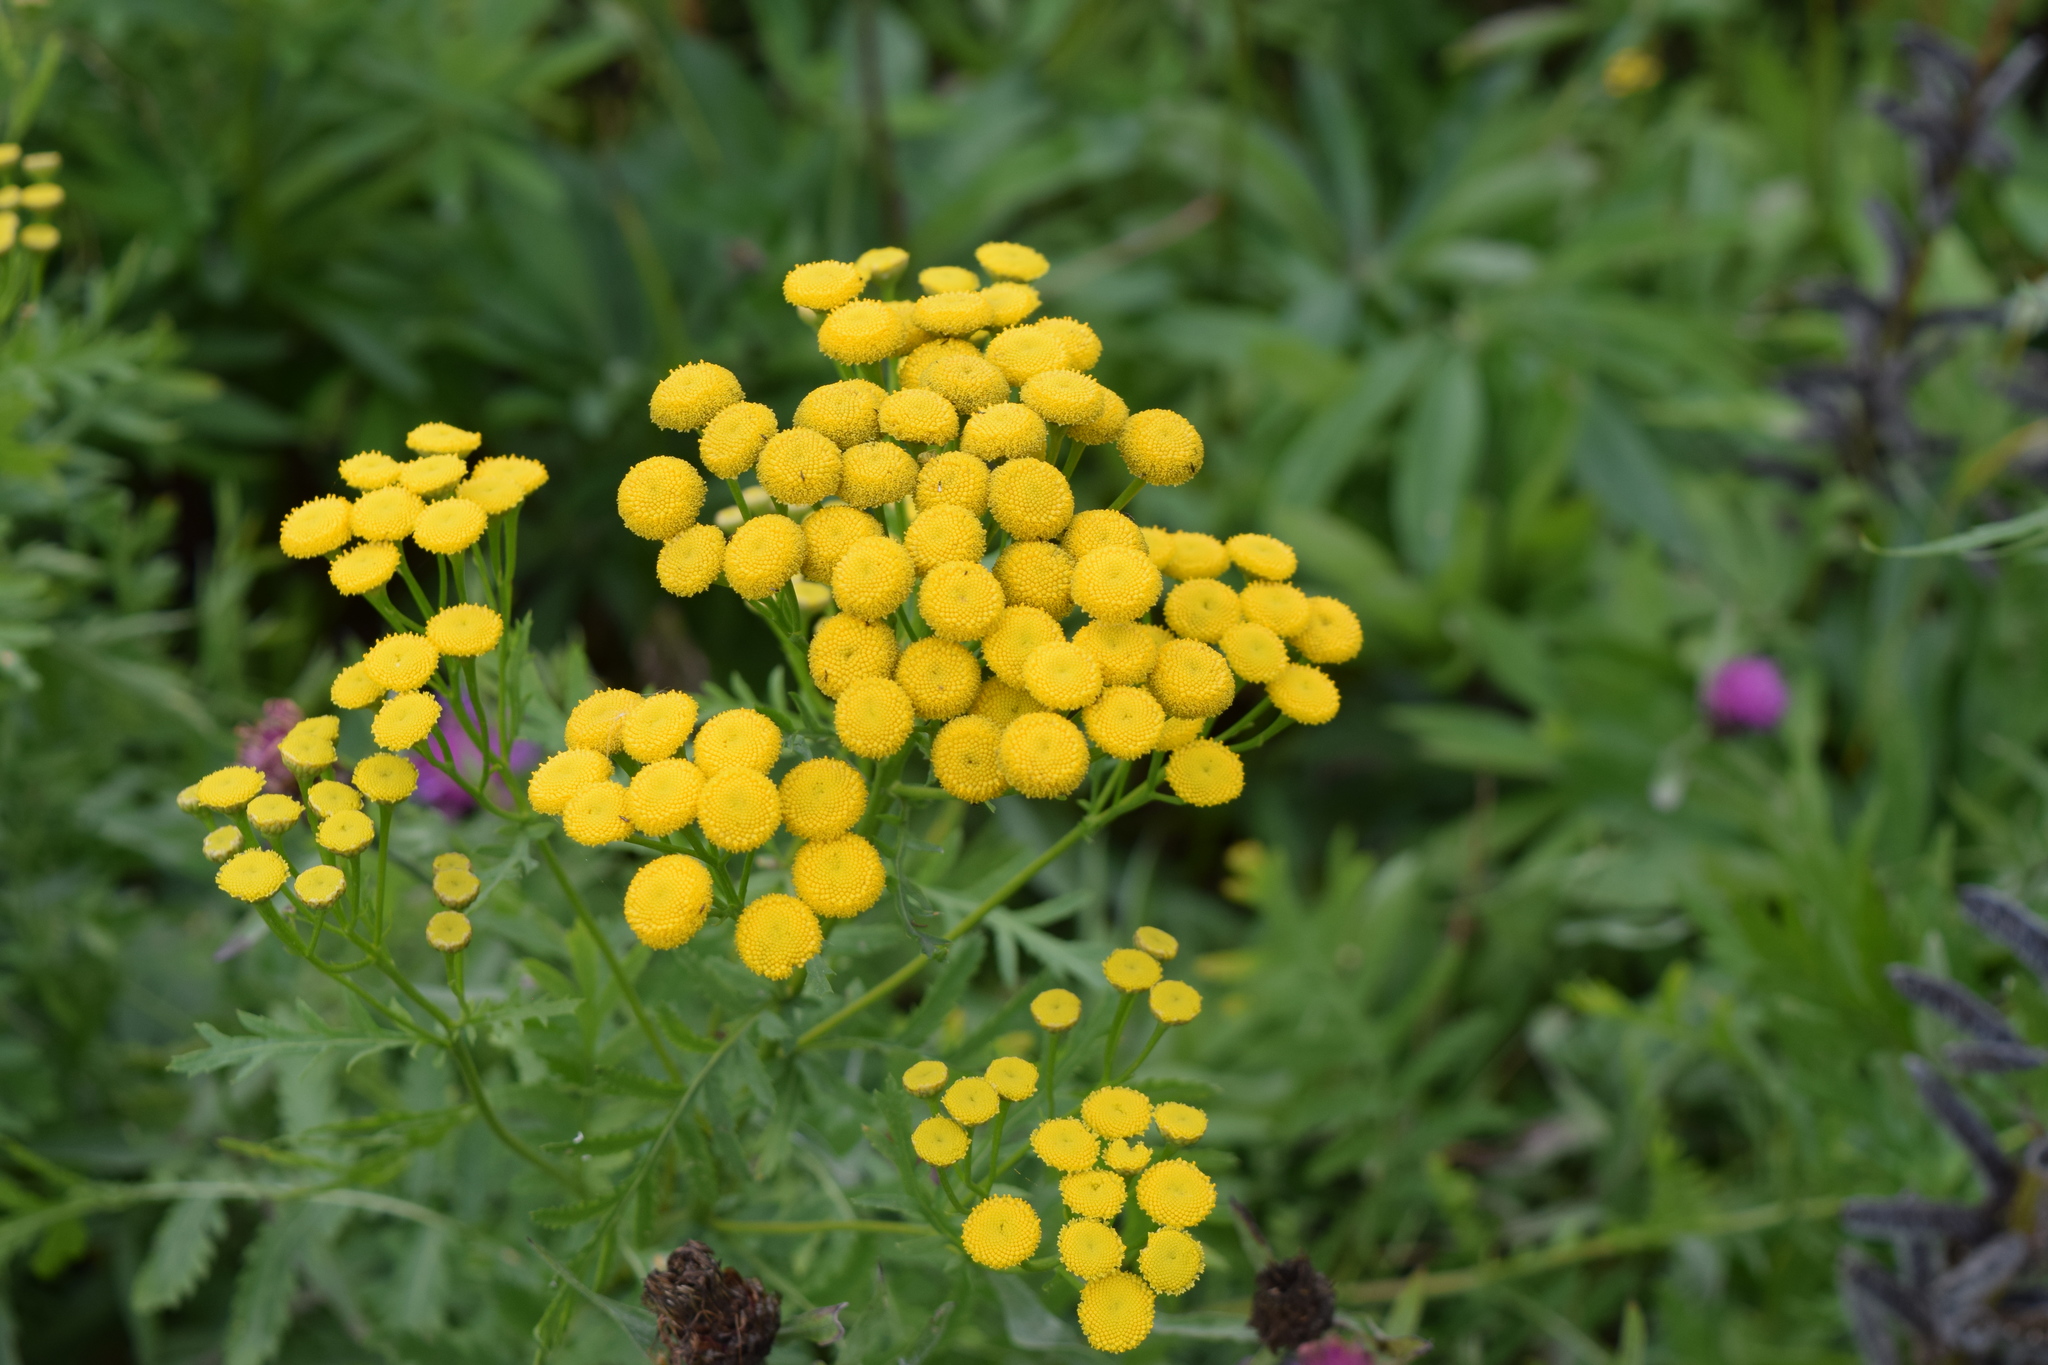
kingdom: Plantae
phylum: Tracheophyta
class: Magnoliopsida
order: Asterales
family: Asteraceae
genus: Tanacetum
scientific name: Tanacetum vulgare
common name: Common tansy
